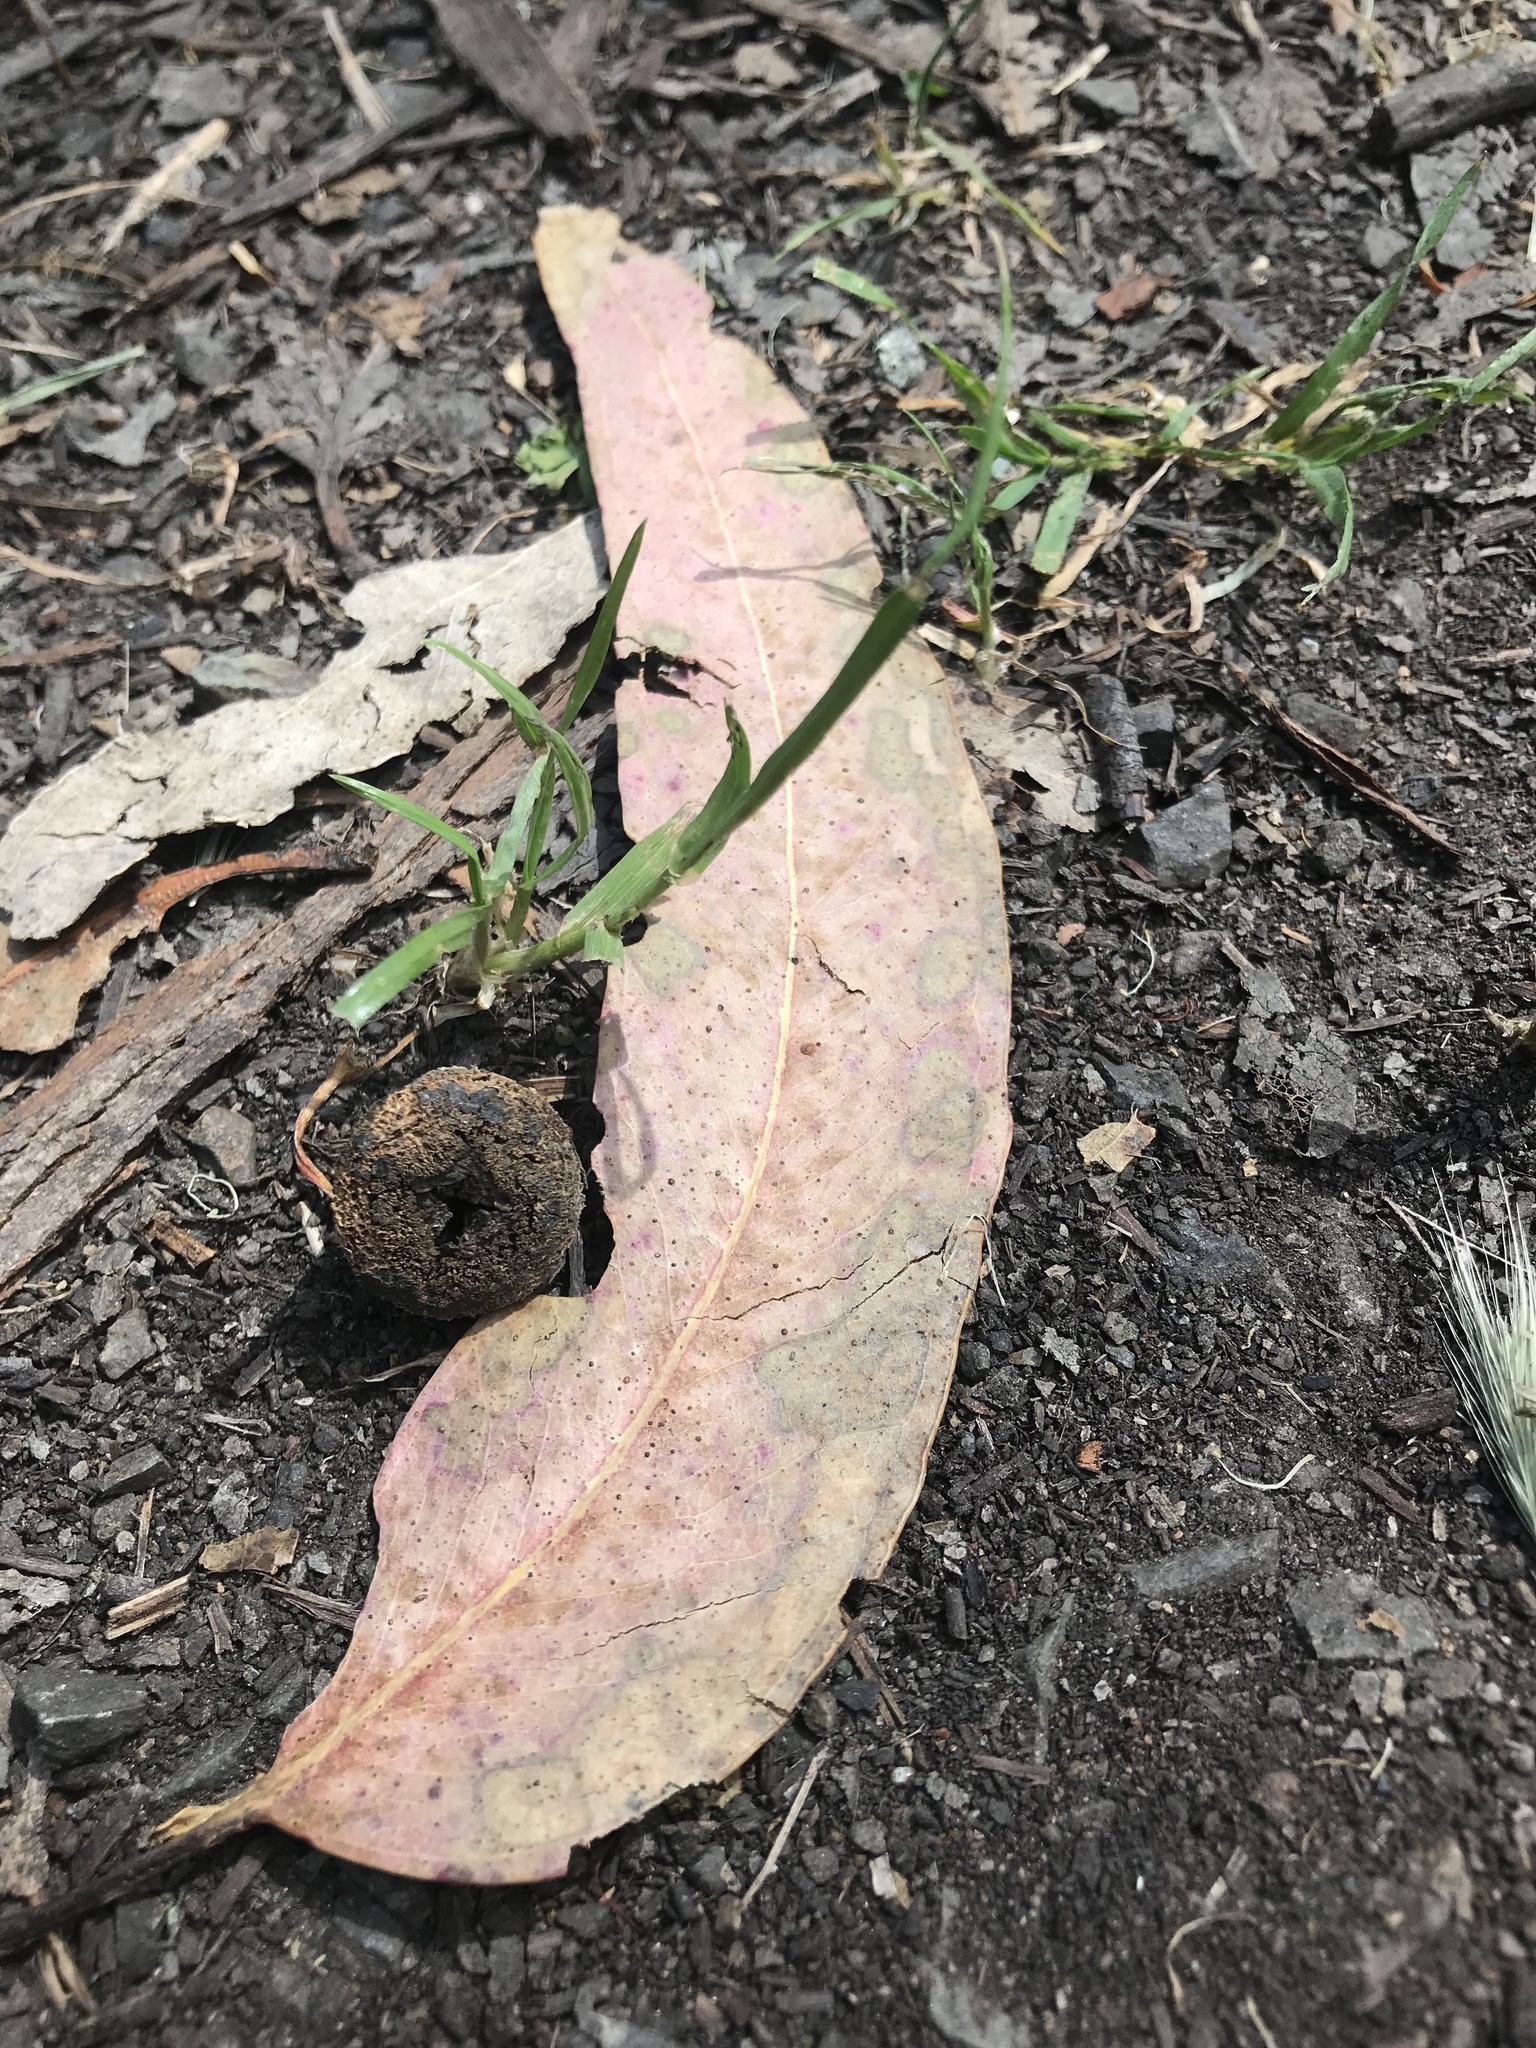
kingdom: Plantae
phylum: Tracheophyta
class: Magnoliopsida
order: Myrtales
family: Myrtaceae
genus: Eucalyptus
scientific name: Eucalyptus globulus
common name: Southern blue-gum
